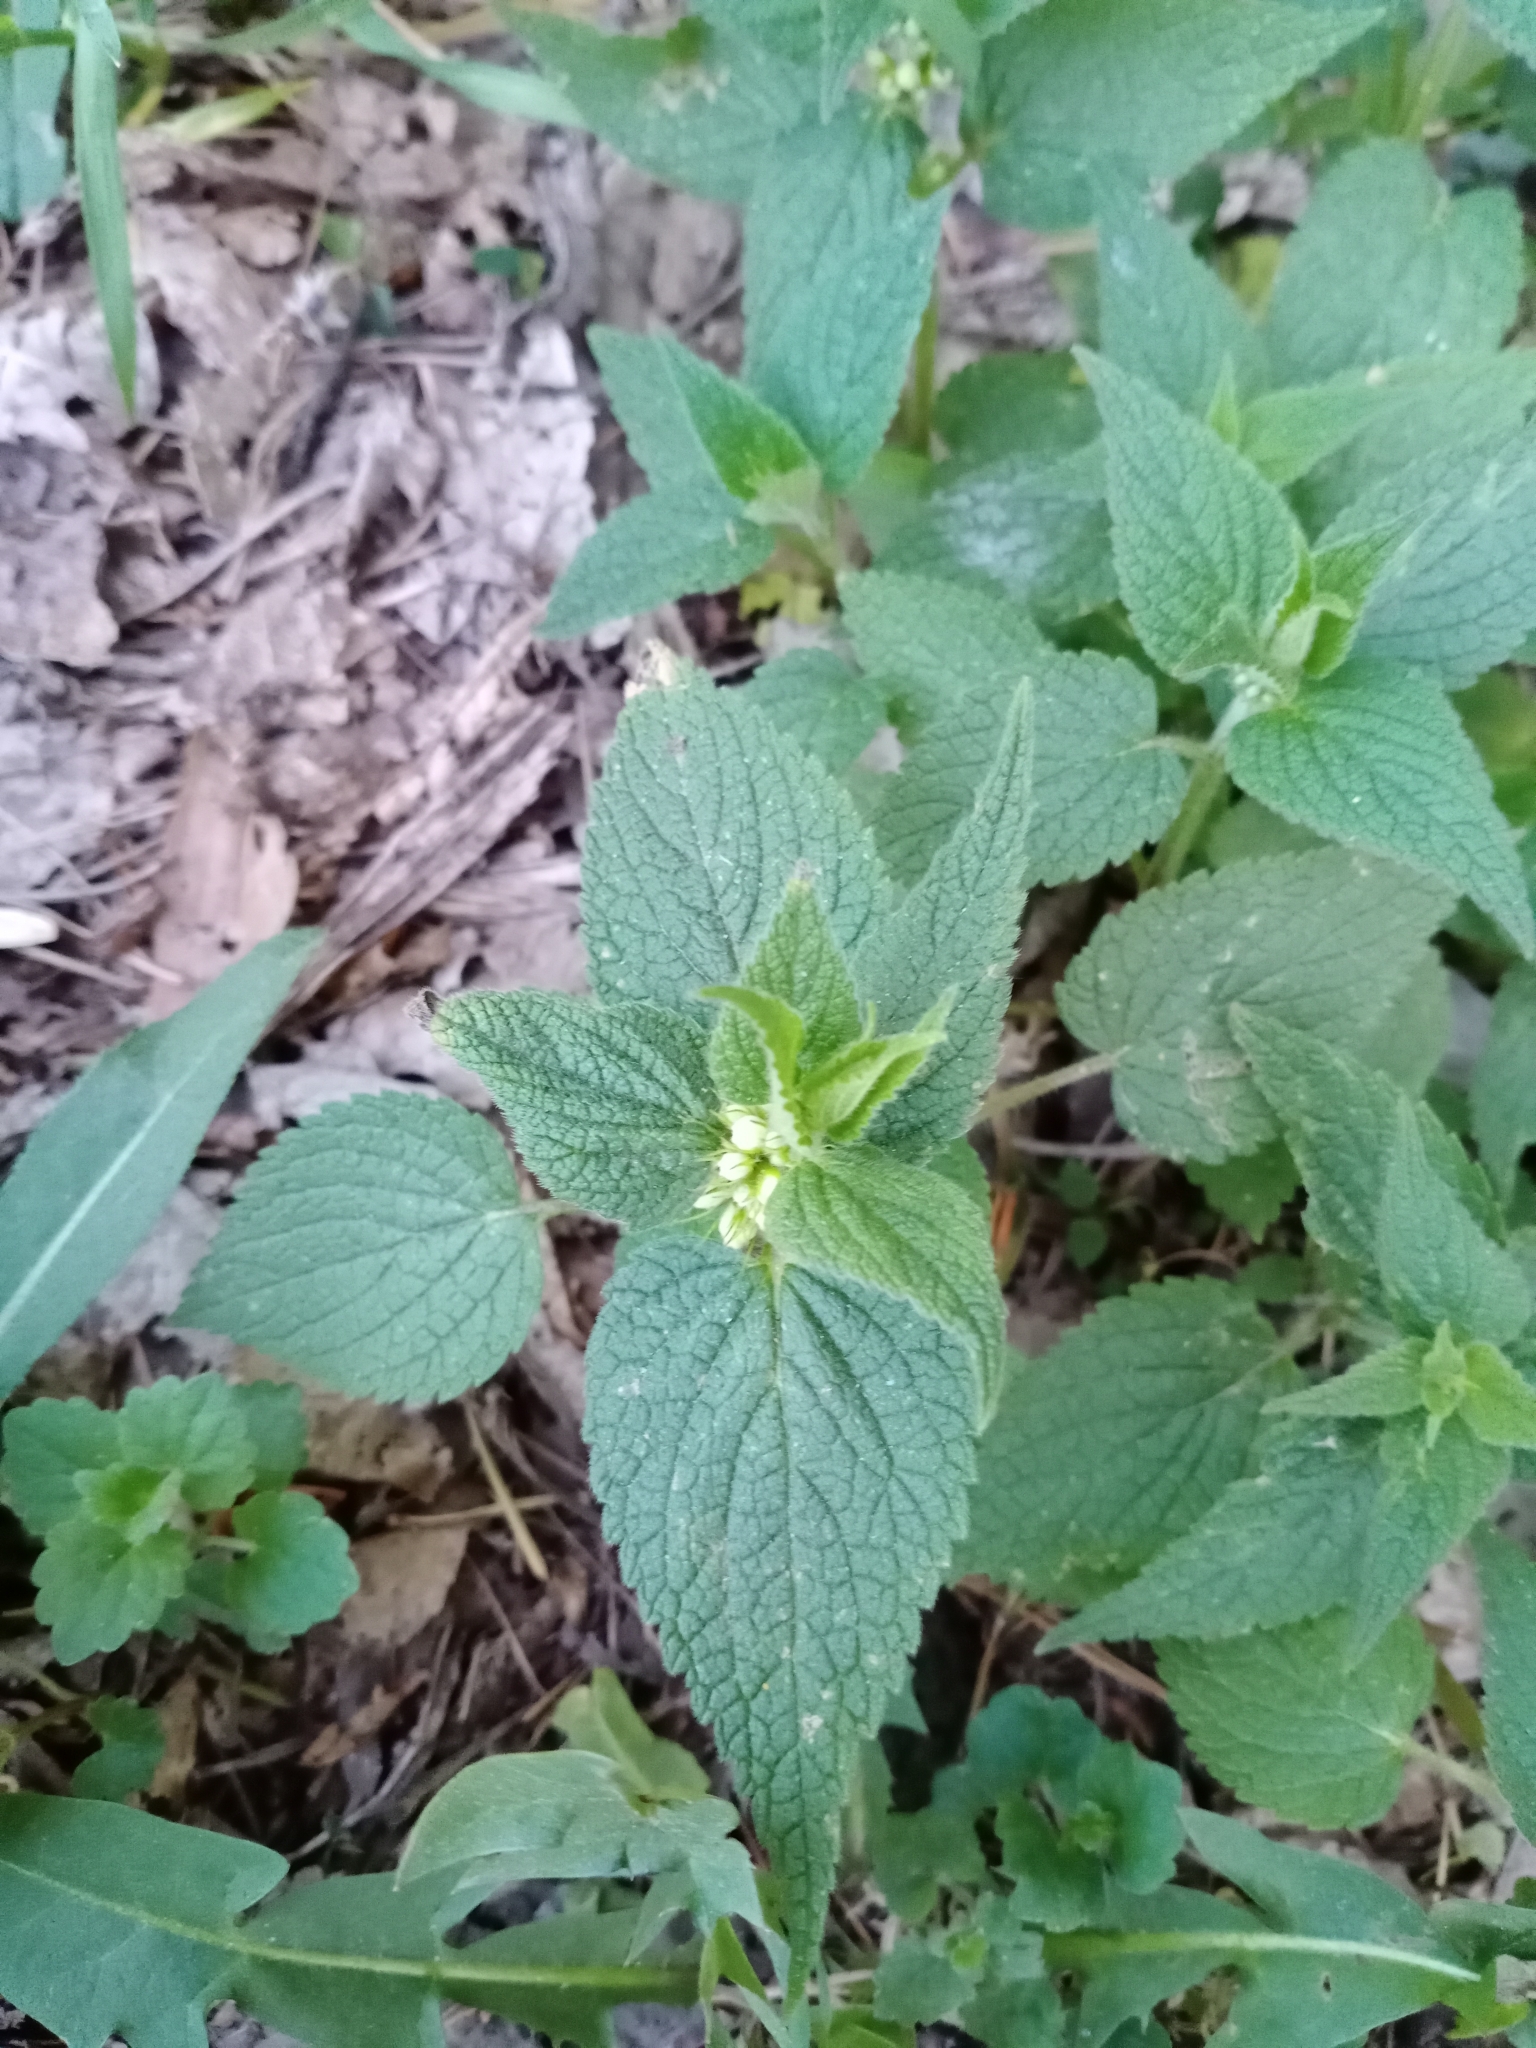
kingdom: Plantae
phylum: Tracheophyta
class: Magnoliopsida
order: Lamiales
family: Lamiaceae
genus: Lamium
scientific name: Lamium album
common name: White dead-nettle
